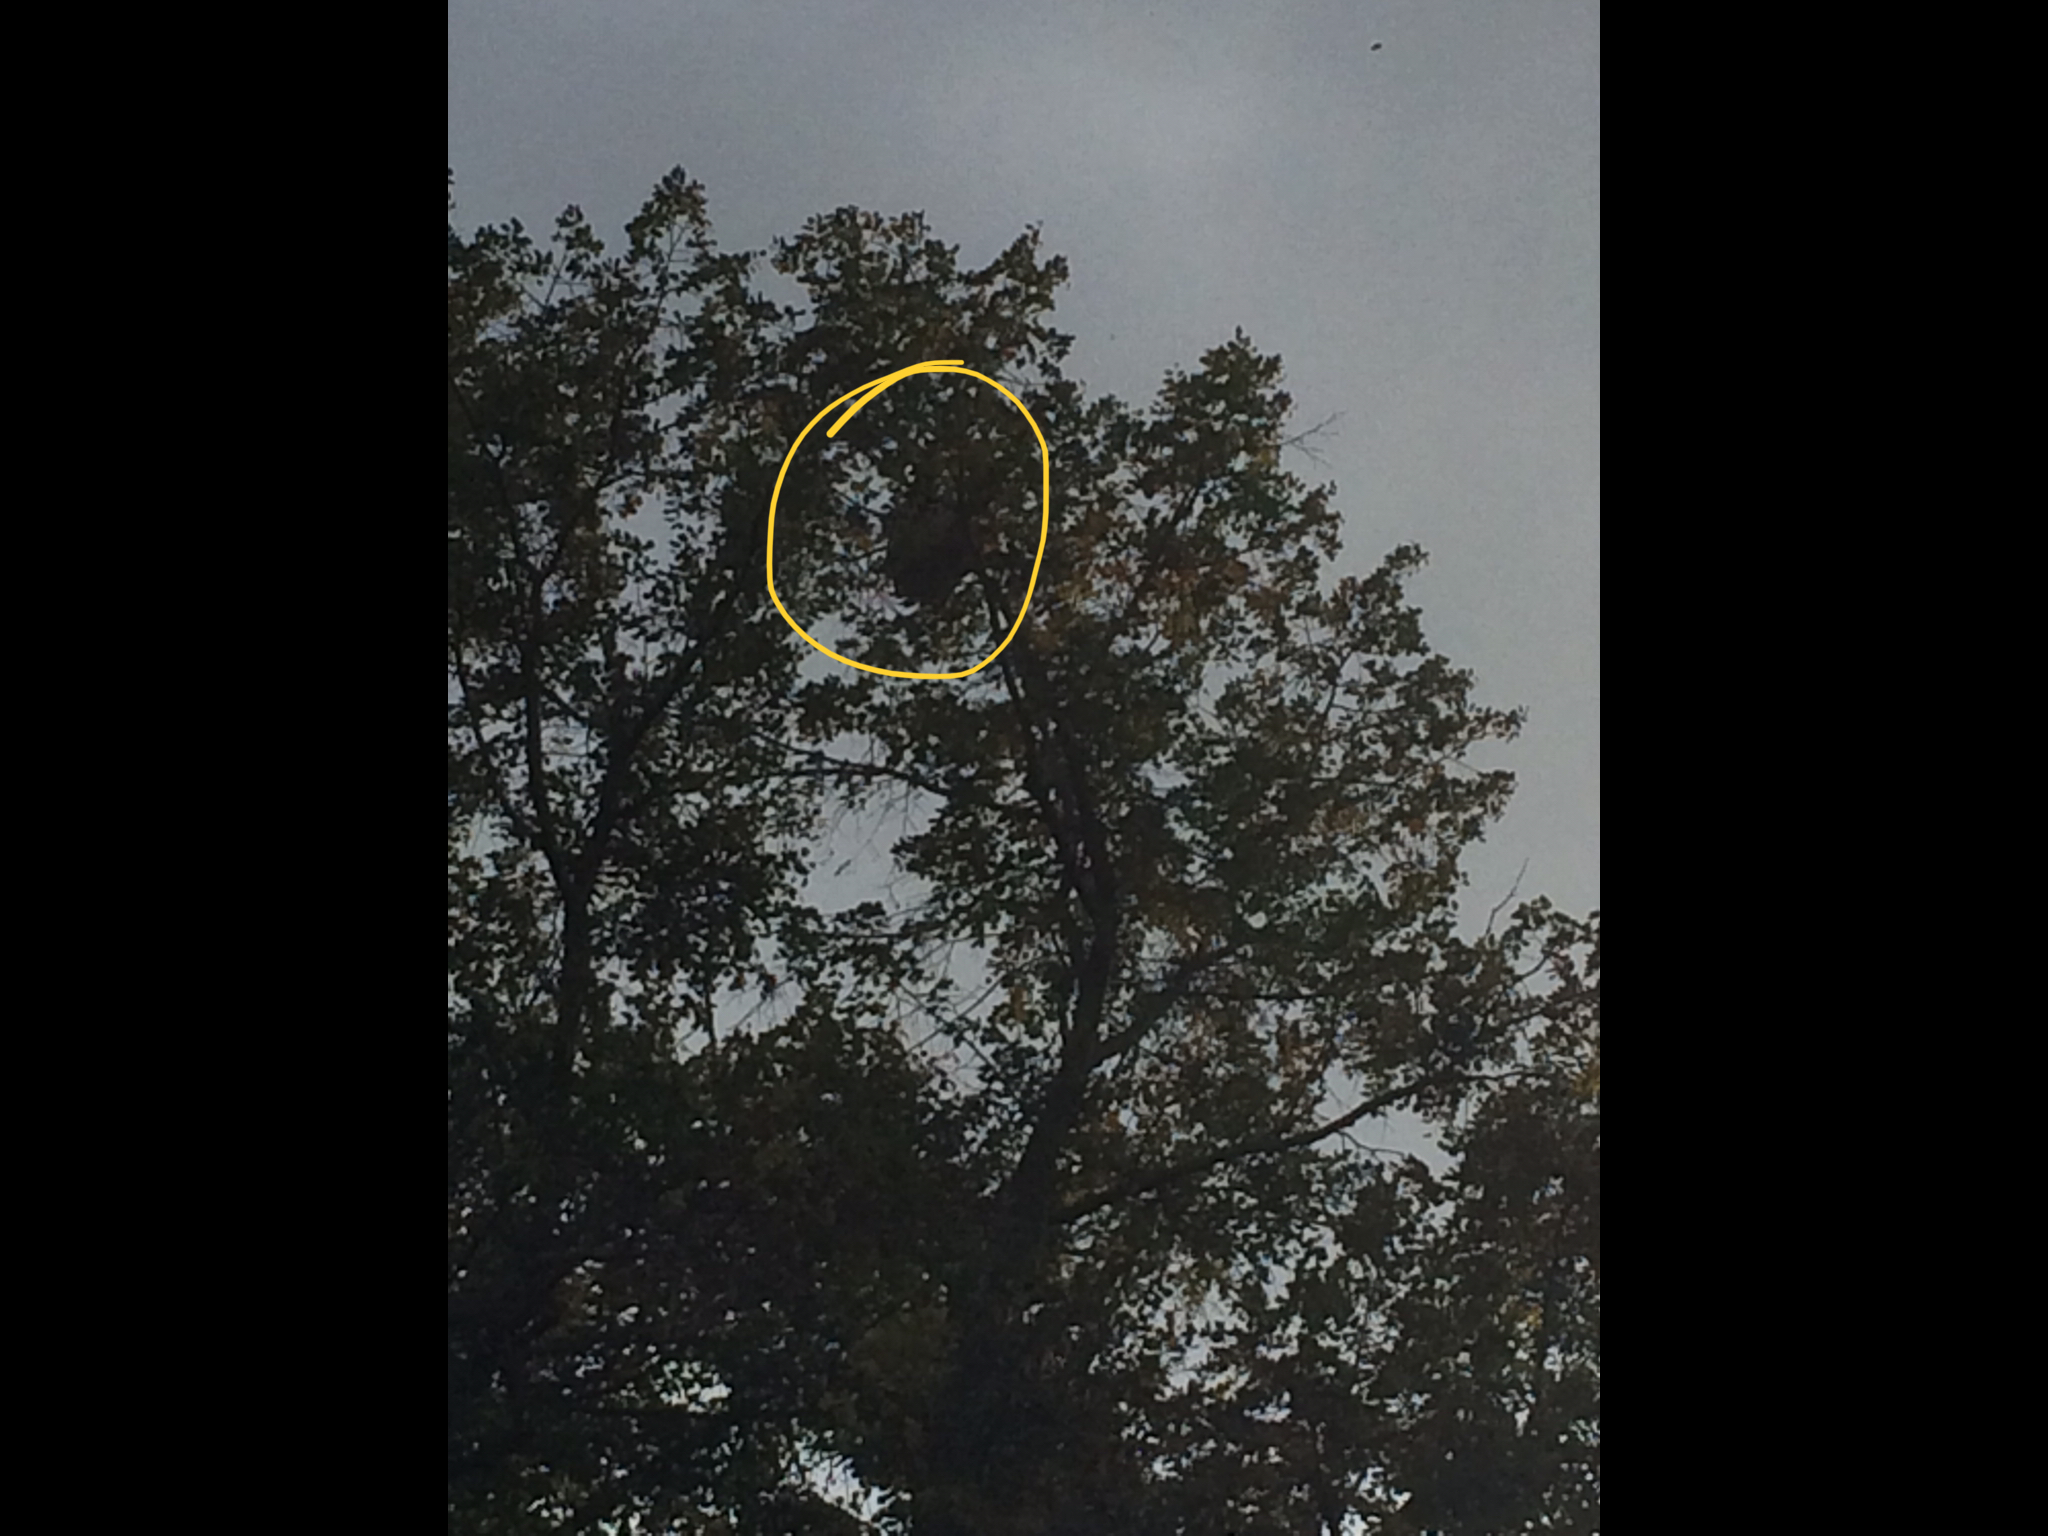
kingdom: Animalia
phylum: Arthropoda
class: Insecta
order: Hymenoptera
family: Vespidae
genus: Vespa
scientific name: Vespa velutina
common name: Asian hornet
